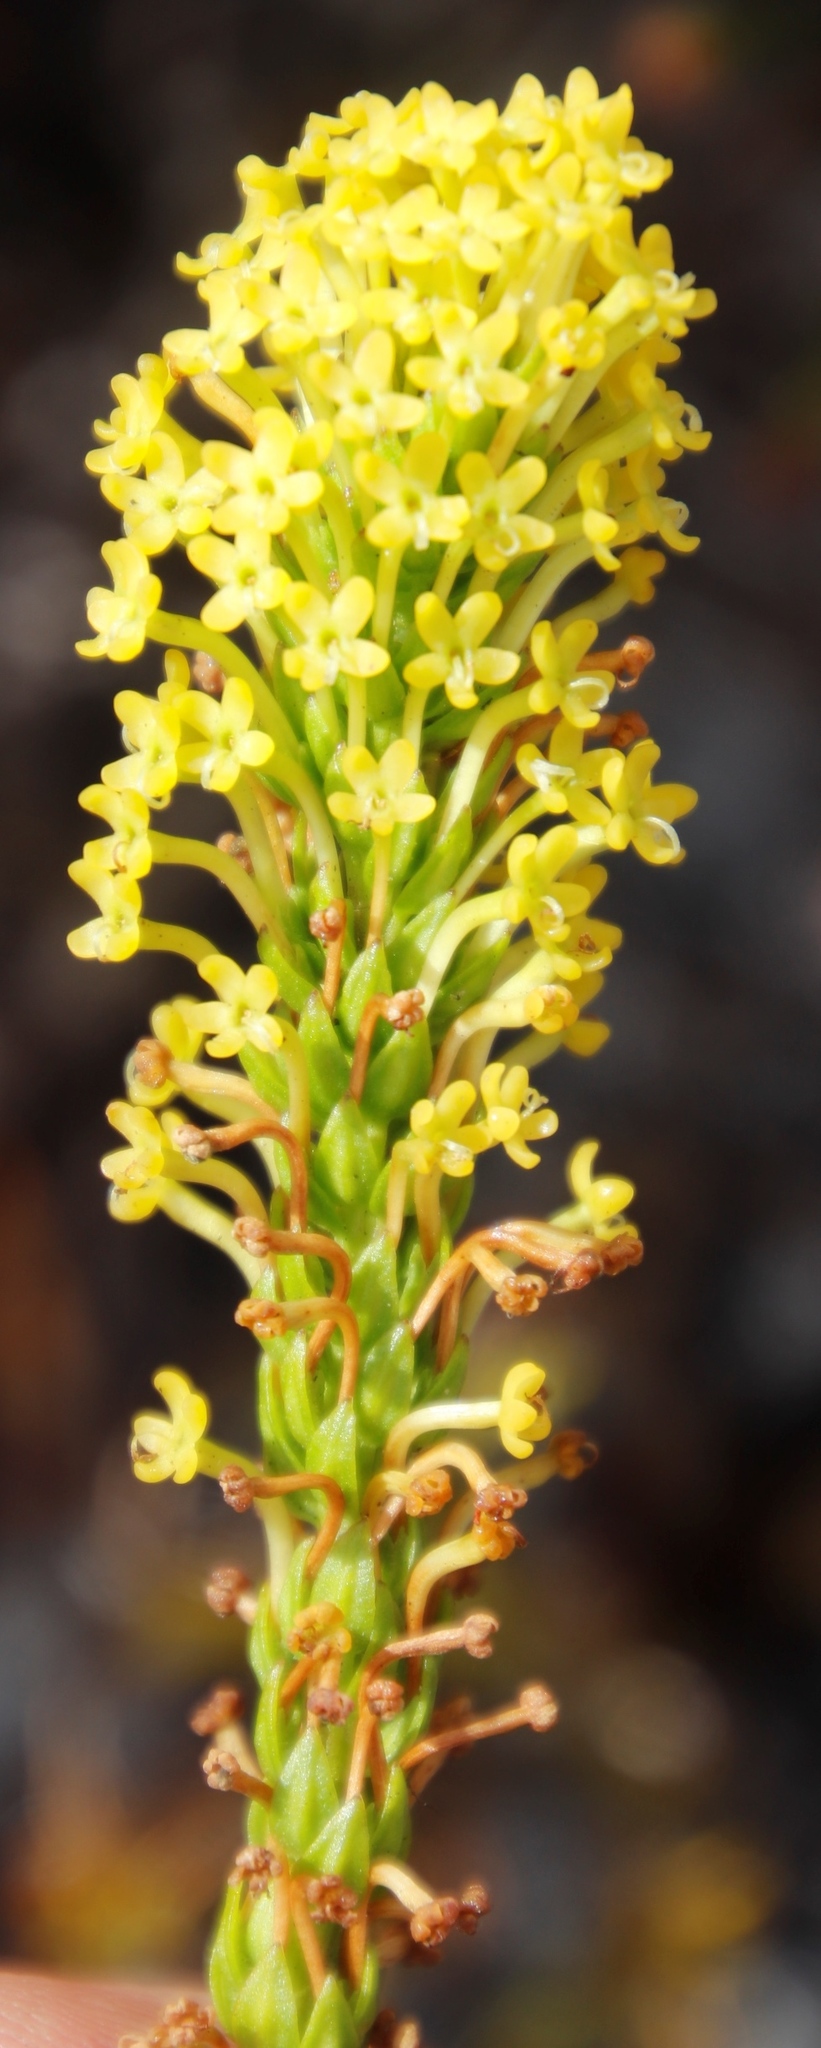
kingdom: Plantae
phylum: Tracheophyta
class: Magnoliopsida
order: Lamiales
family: Scrophulariaceae
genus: Microdon
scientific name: Microdon dubius
